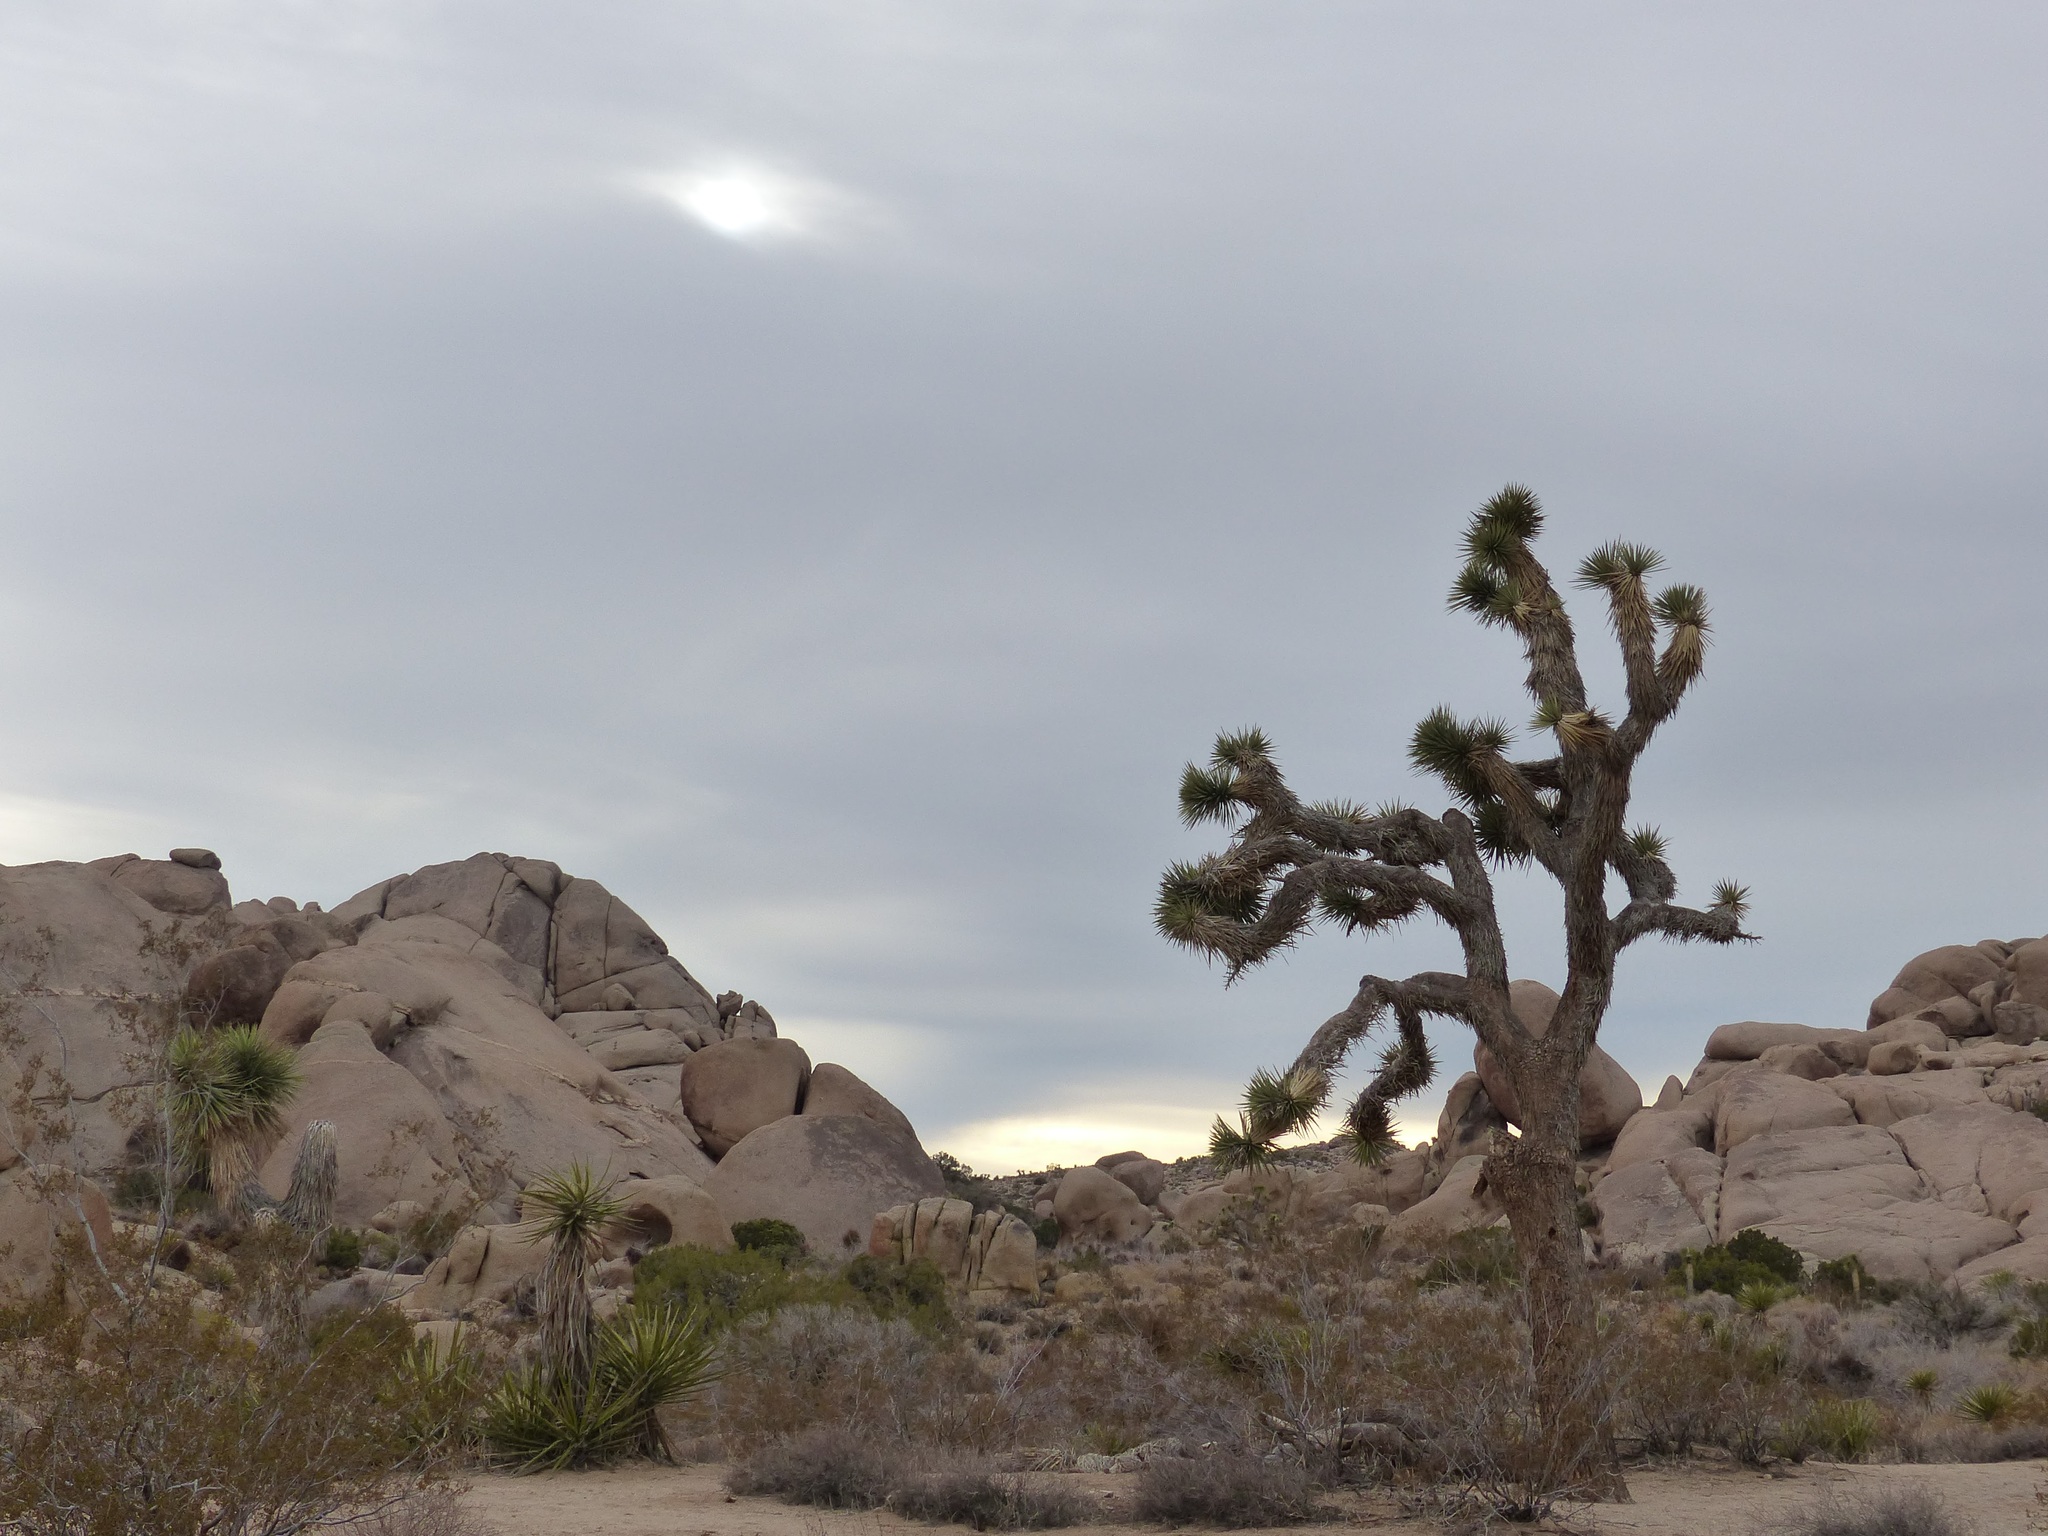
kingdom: Plantae
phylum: Tracheophyta
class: Liliopsida
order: Asparagales
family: Asparagaceae
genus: Yucca
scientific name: Yucca brevifolia
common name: Joshua tree
